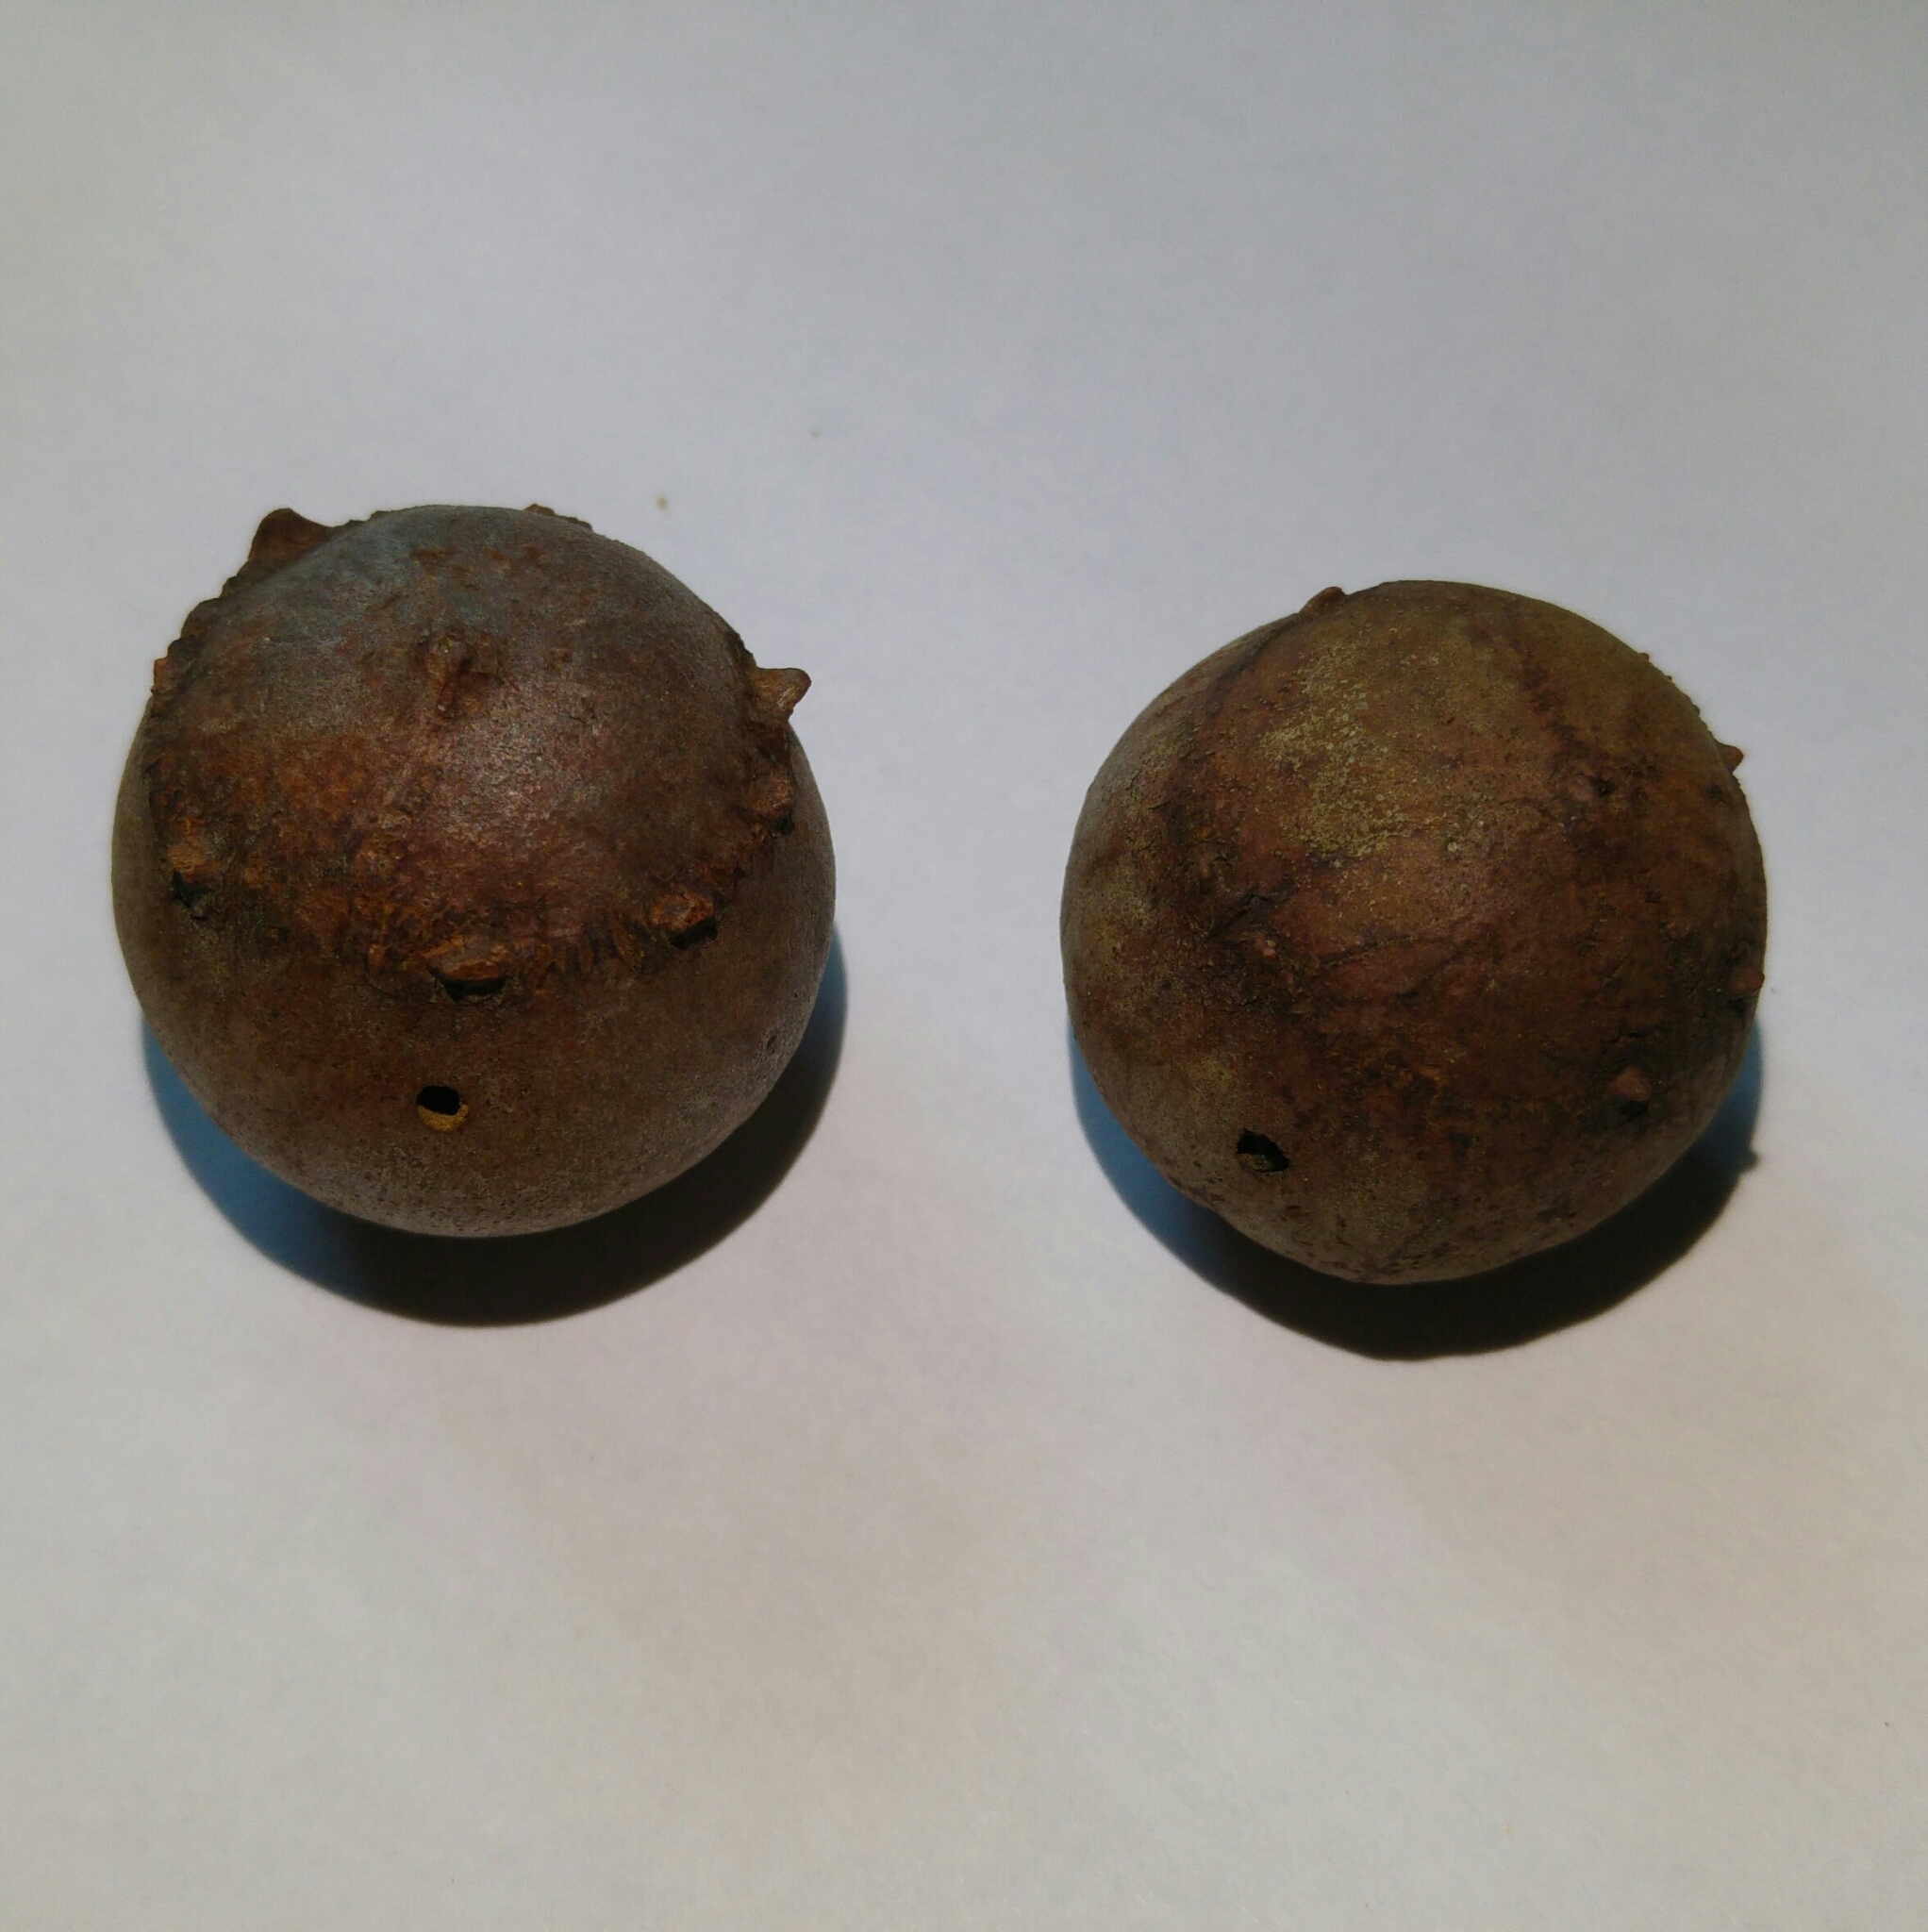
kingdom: Animalia
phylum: Arthropoda
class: Insecta
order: Hymenoptera
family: Cynipidae
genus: Andricus
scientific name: Andricus quercustozae
